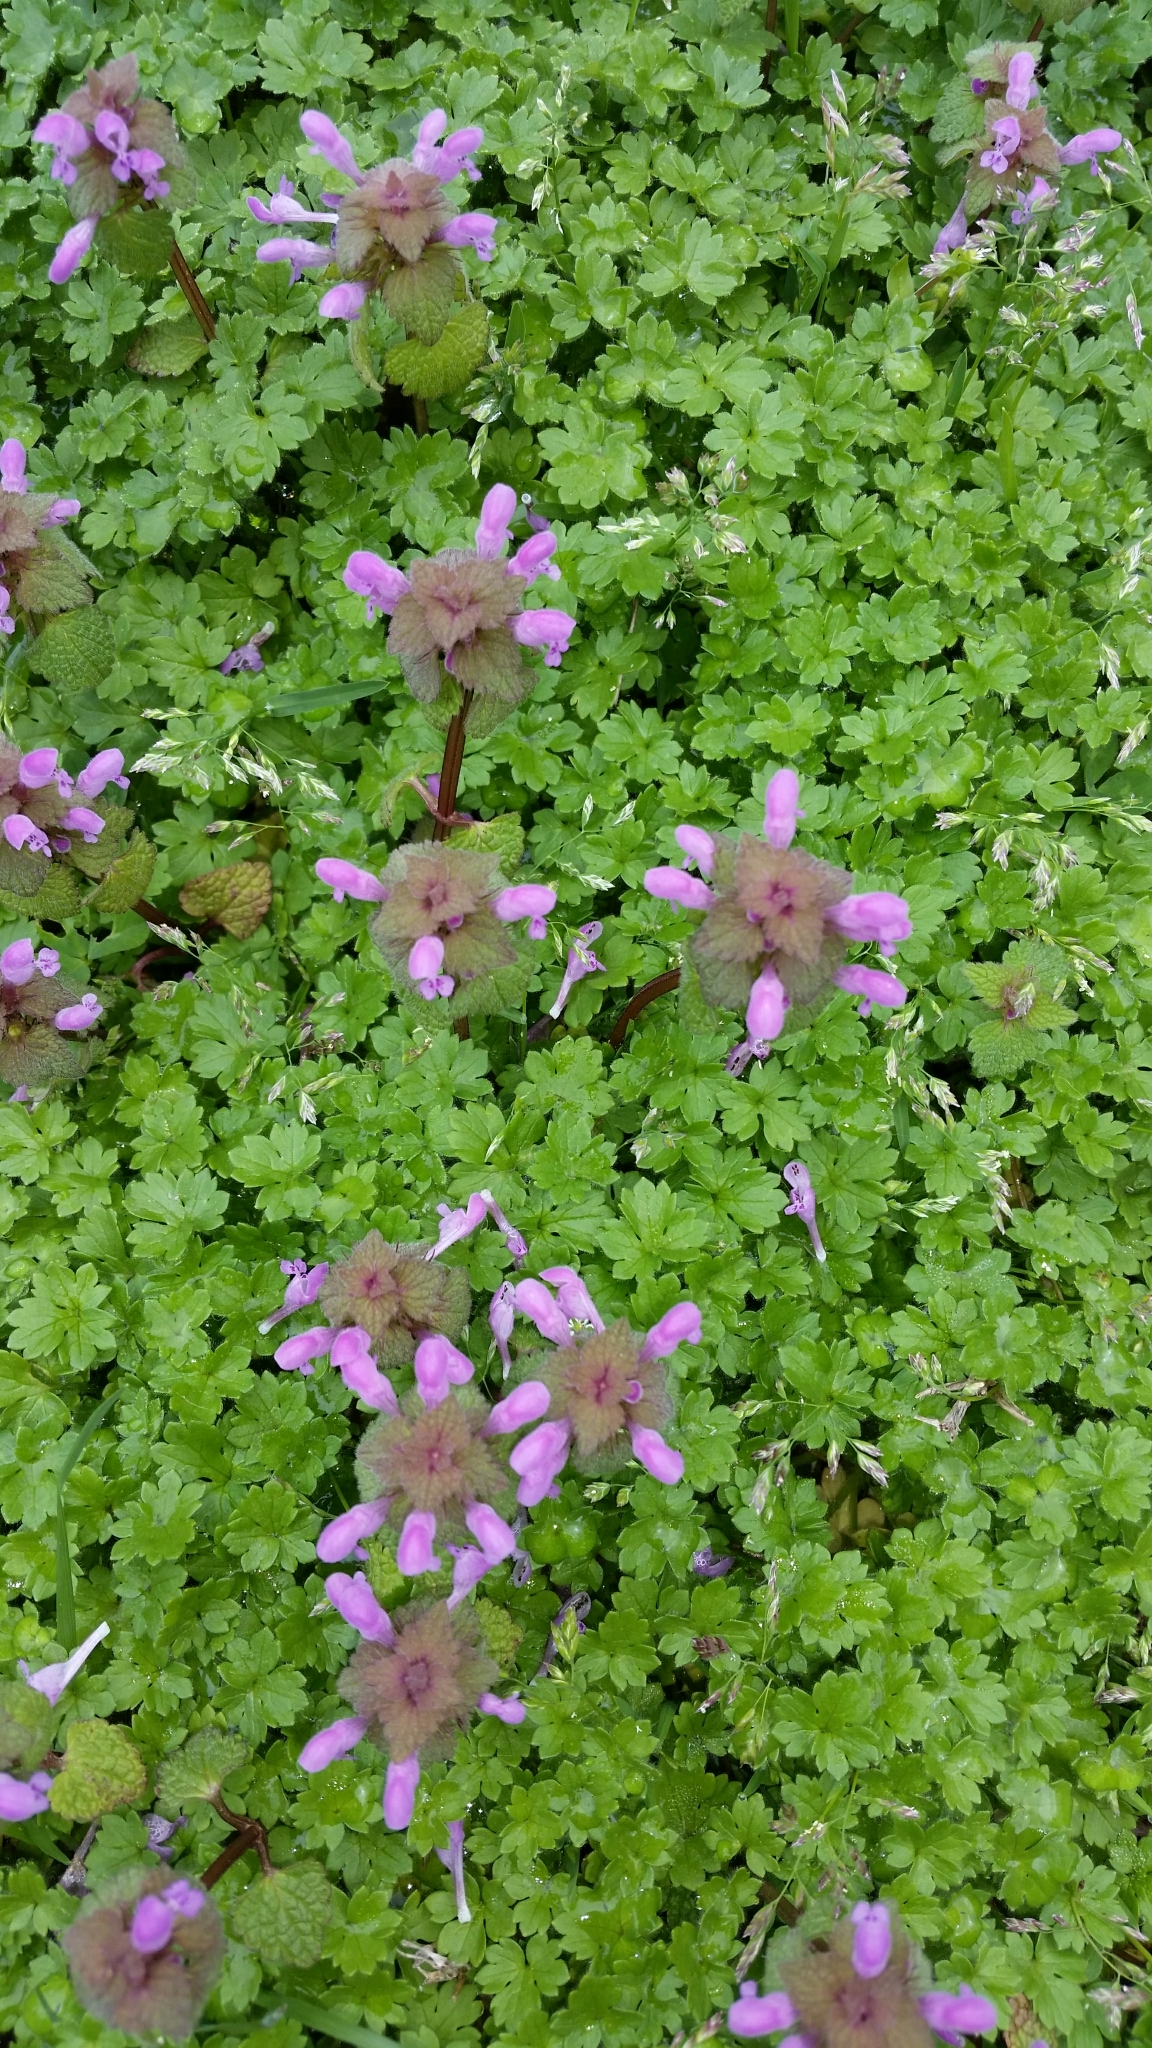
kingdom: Plantae
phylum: Tracheophyta
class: Magnoliopsida
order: Lamiales
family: Lamiaceae
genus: Lamium
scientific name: Lamium purpureum
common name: Red dead-nettle
